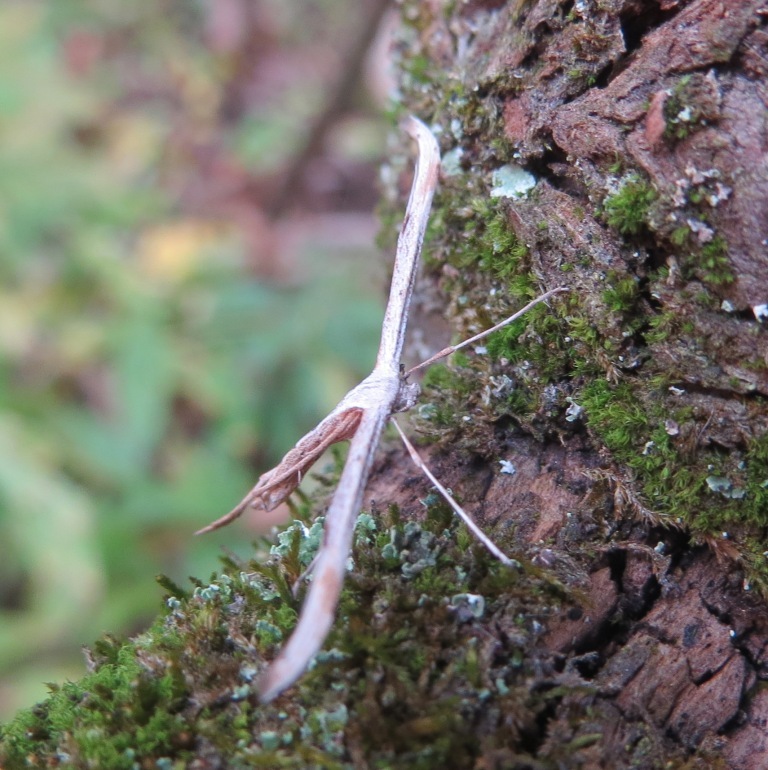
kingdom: Animalia
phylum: Arthropoda
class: Insecta
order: Lepidoptera
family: Pterophoridae
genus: Emmelina
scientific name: Emmelina monodactyla
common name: Common plume
